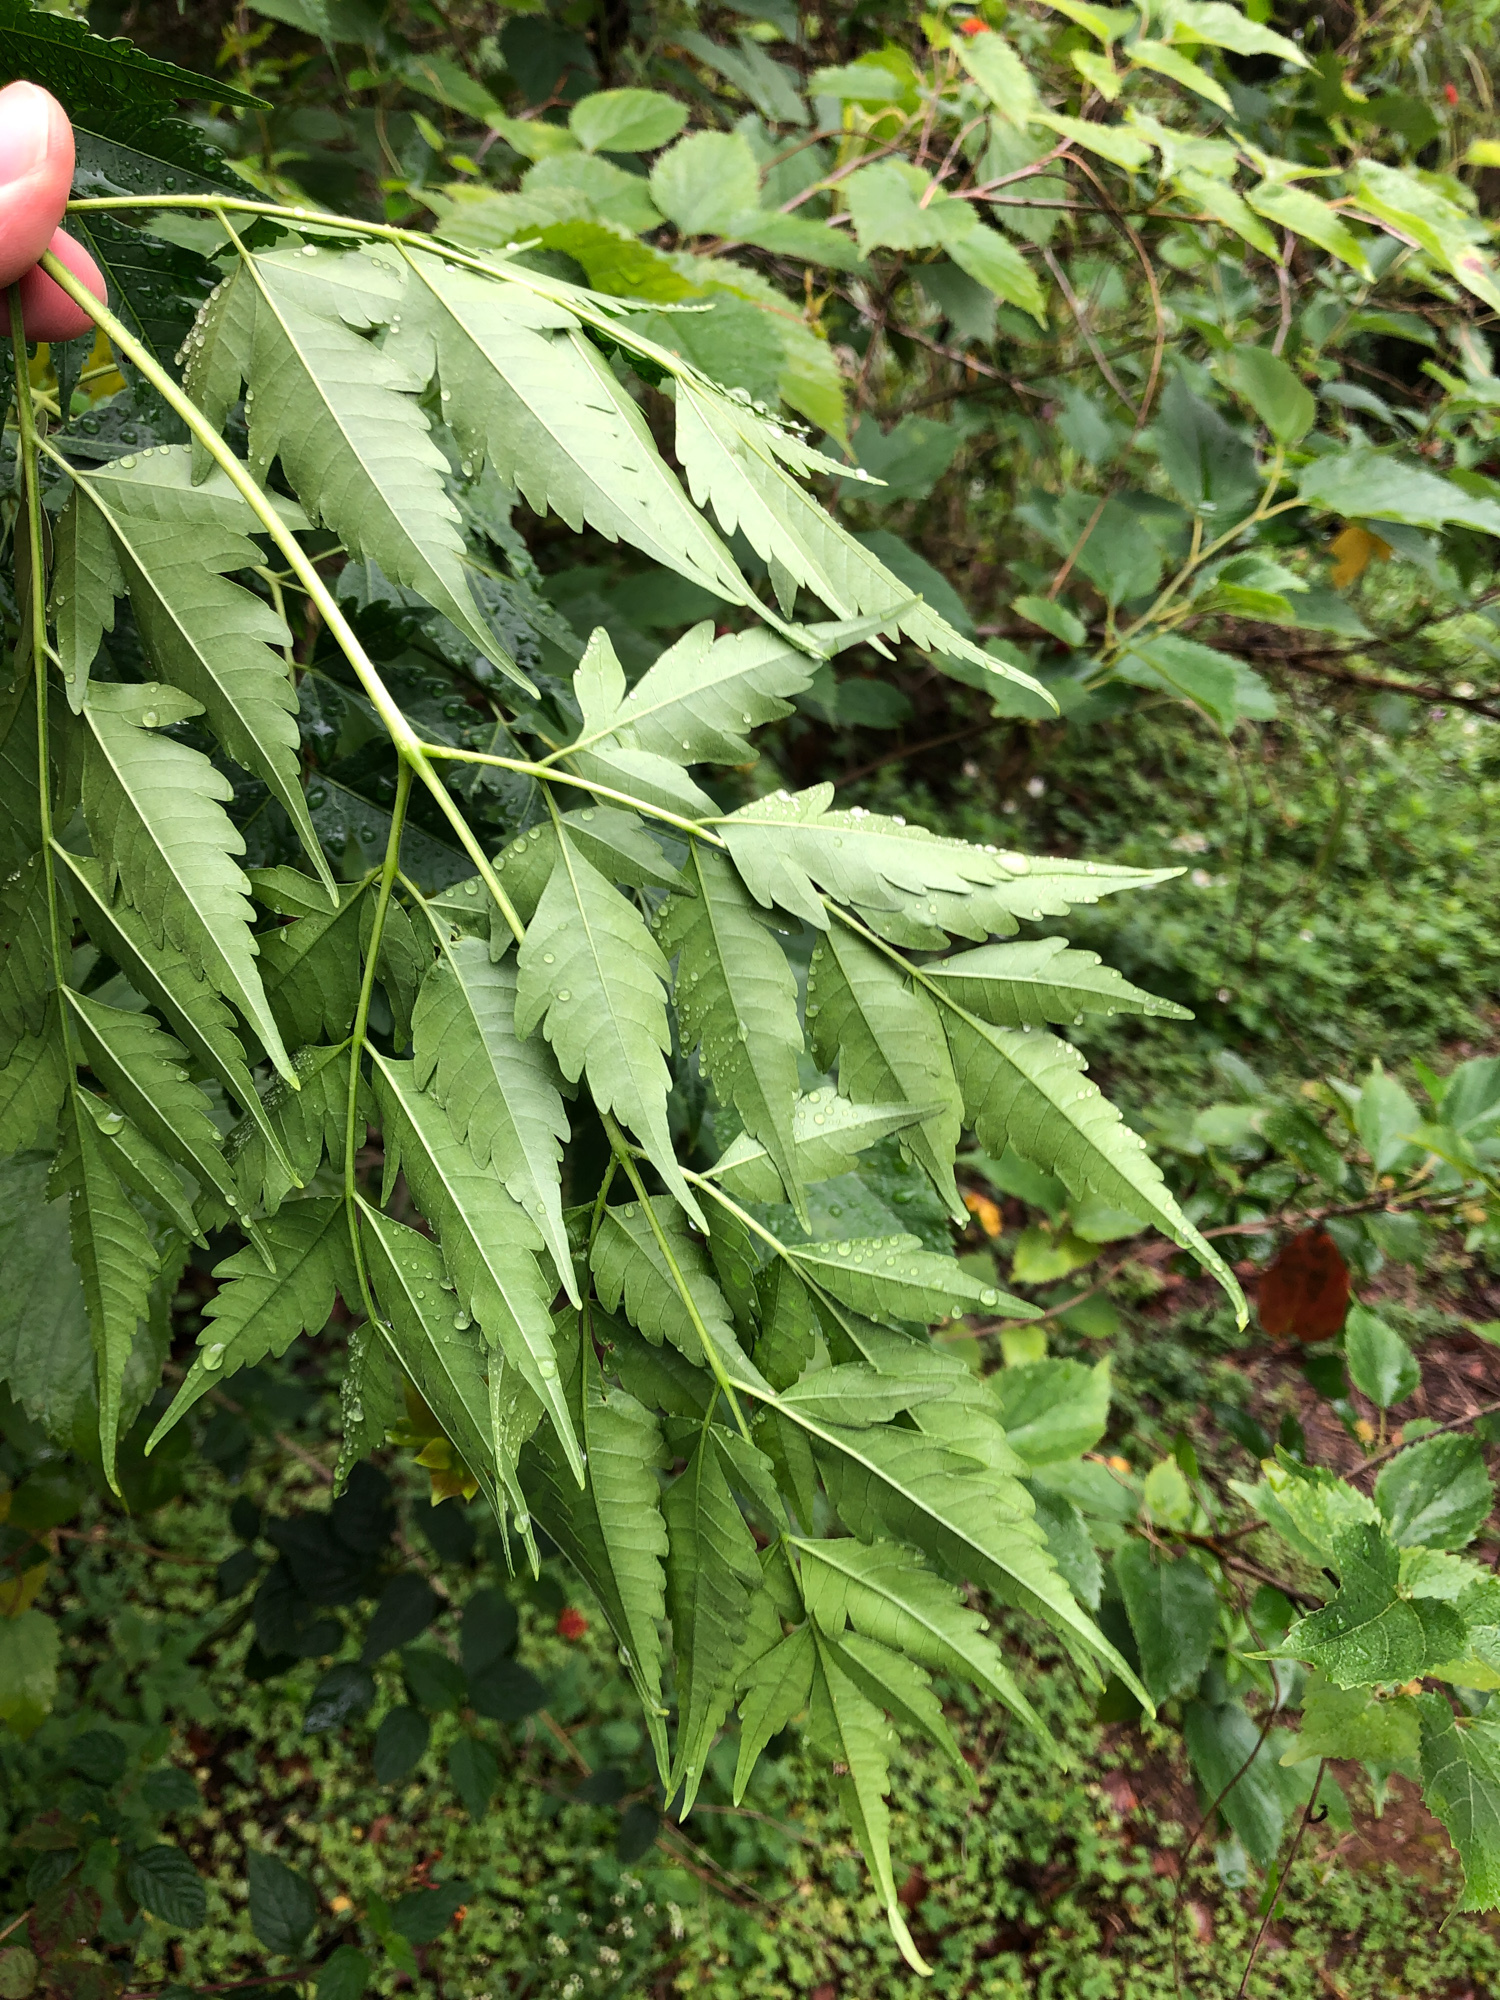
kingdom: Plantae
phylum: Tracheophyta
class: Magnoliopsida
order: Sapindales
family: Meliaceae
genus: Melia
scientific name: Melia azedarach
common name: Chinaberrytree
